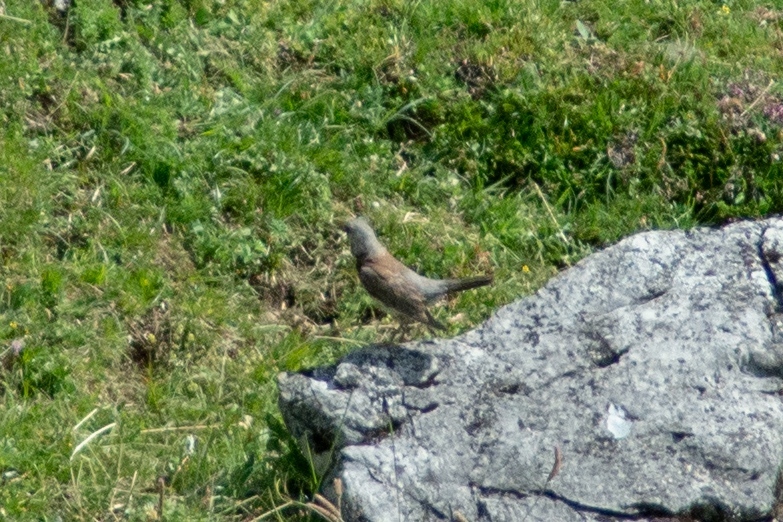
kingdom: Animalia
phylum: Chordata
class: Aves
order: Passeriformes
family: Turdidae
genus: Turdus
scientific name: Turdus pilaris
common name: Fieldfare
